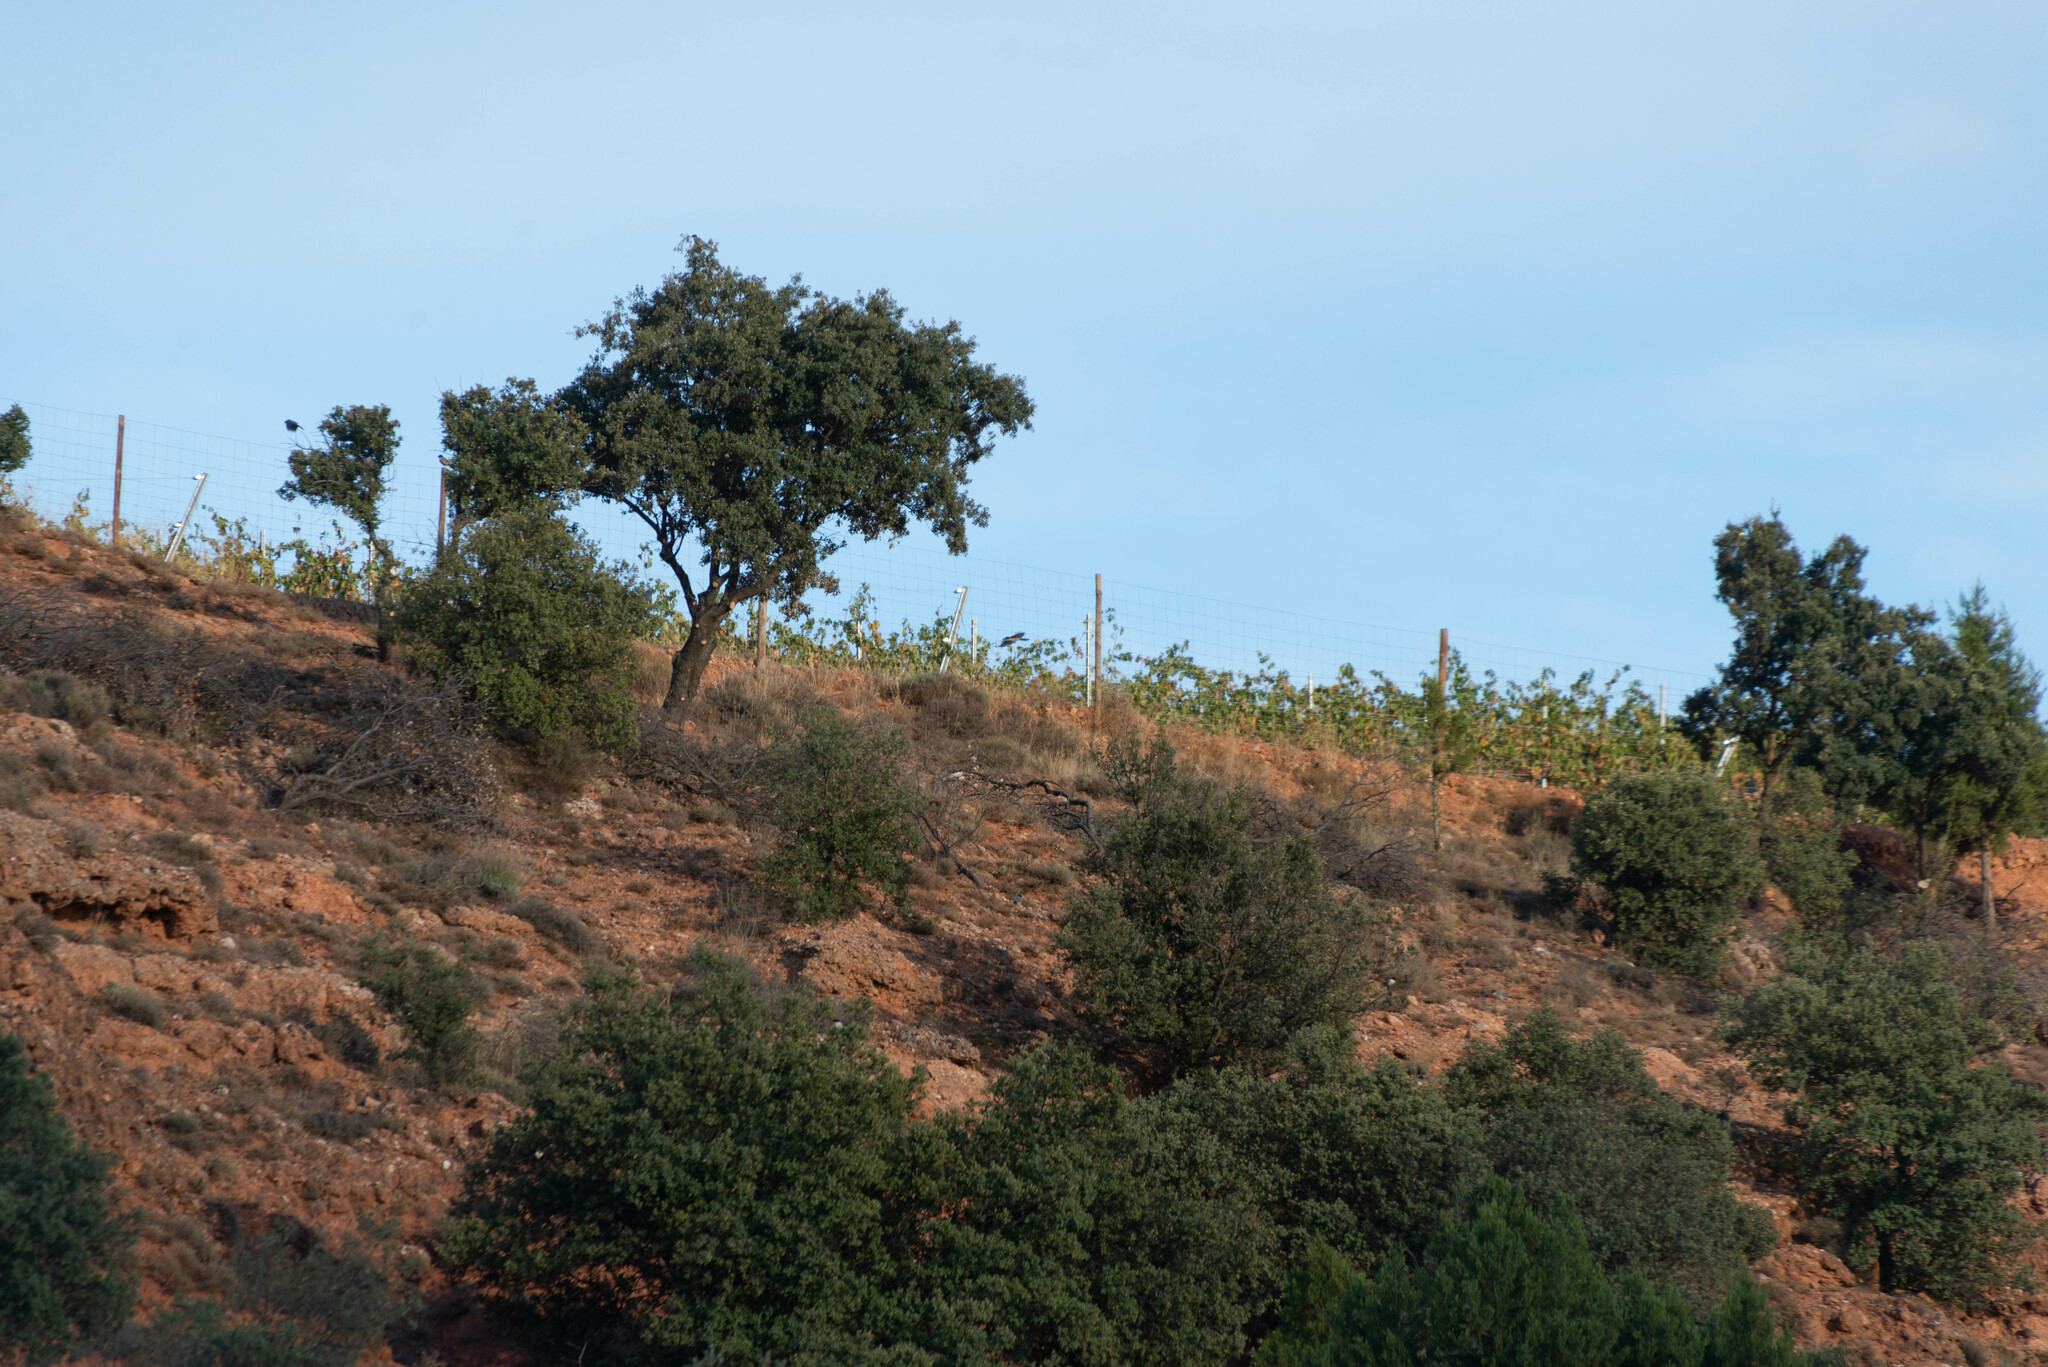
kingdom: Animalia
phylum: Chordata
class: Aves
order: Passeriformes
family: Corvidae
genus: Cyanopica
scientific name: Cyanopica cooki
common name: Iberian magpie
